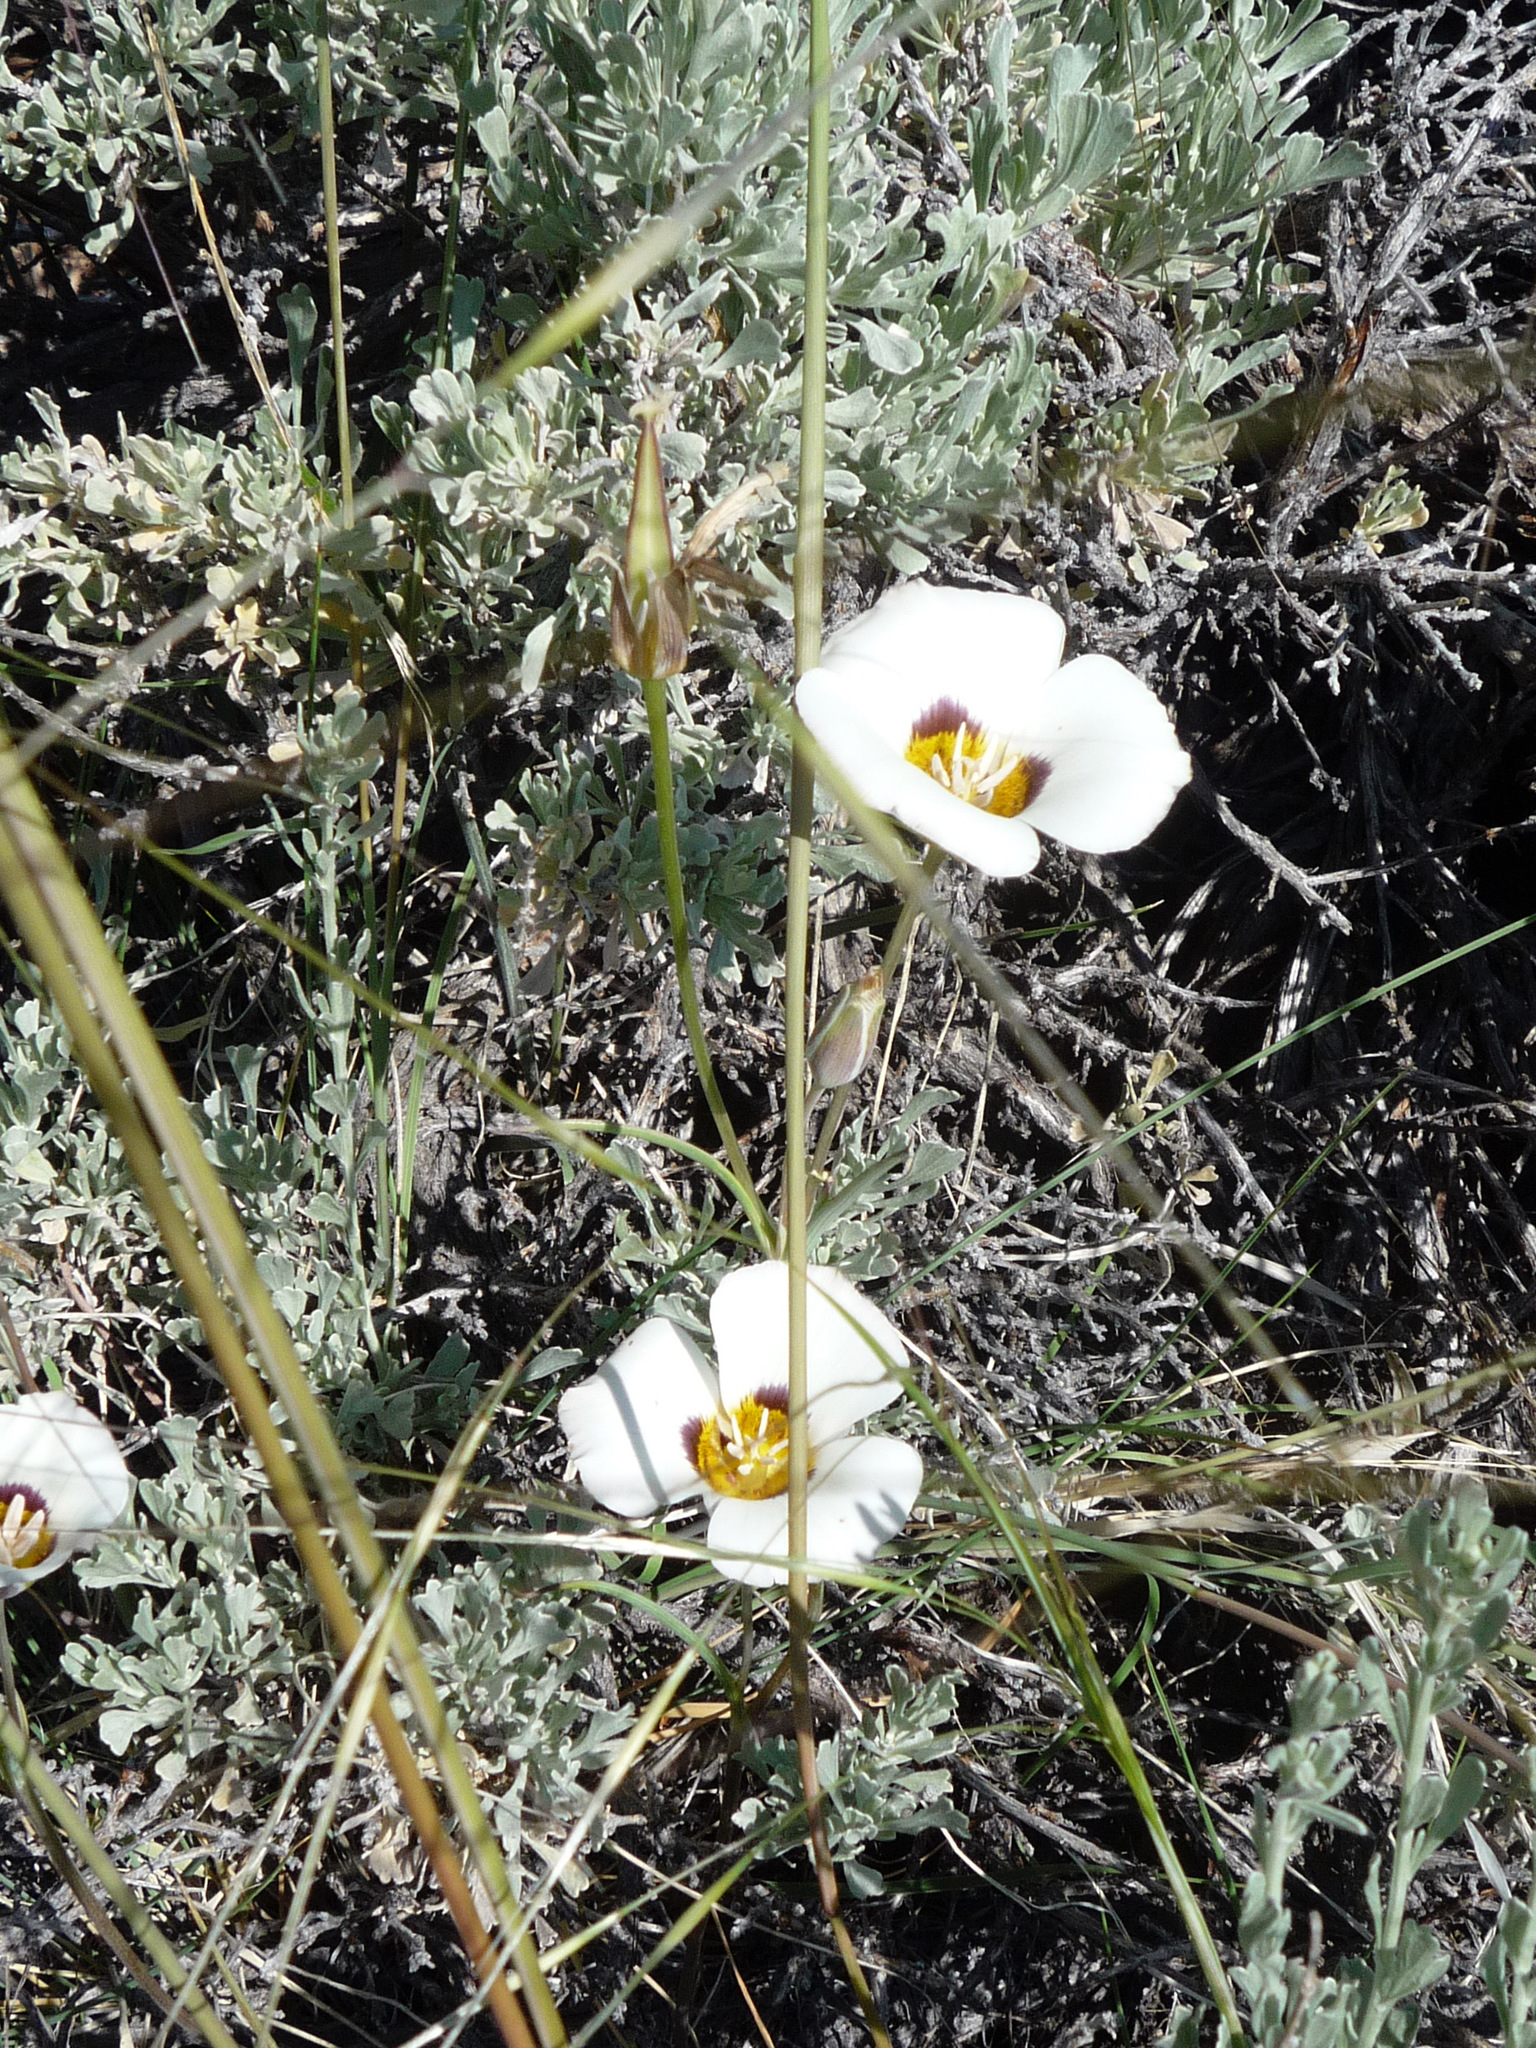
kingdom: Plantae
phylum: Tracheophyta
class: Liliopsida
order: Liliales
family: Liliaceae
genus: Calochortus
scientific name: Calochortus leichtlinii
